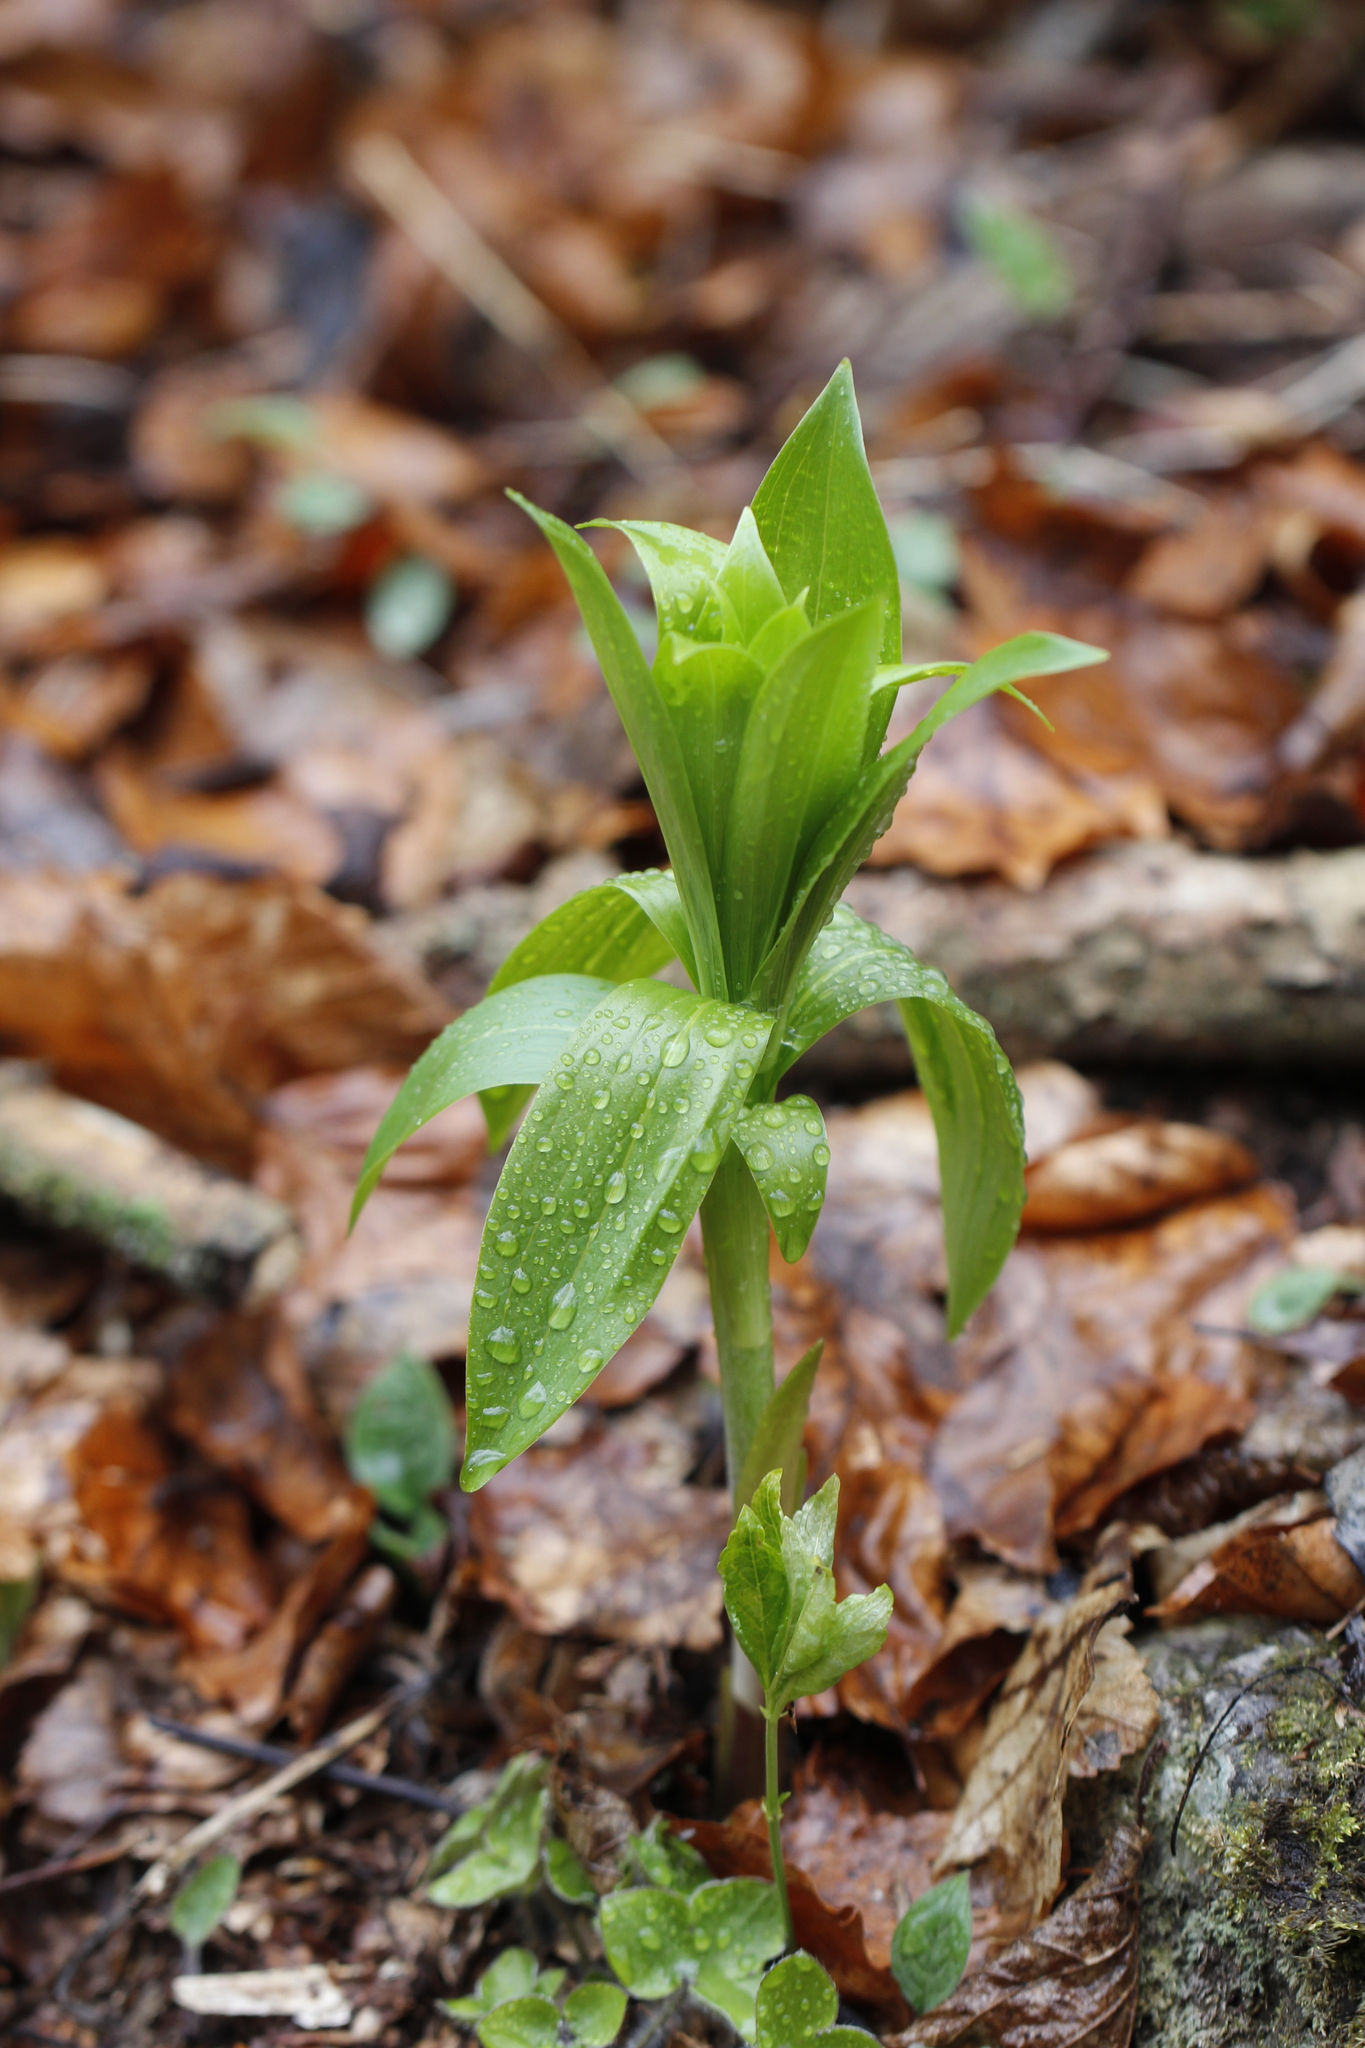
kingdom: Plantae
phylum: Tracheophyta
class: Liliopsida
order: Liliales
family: Liliaceae
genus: Lilium
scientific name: Lilium martagon
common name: Martagon lily
